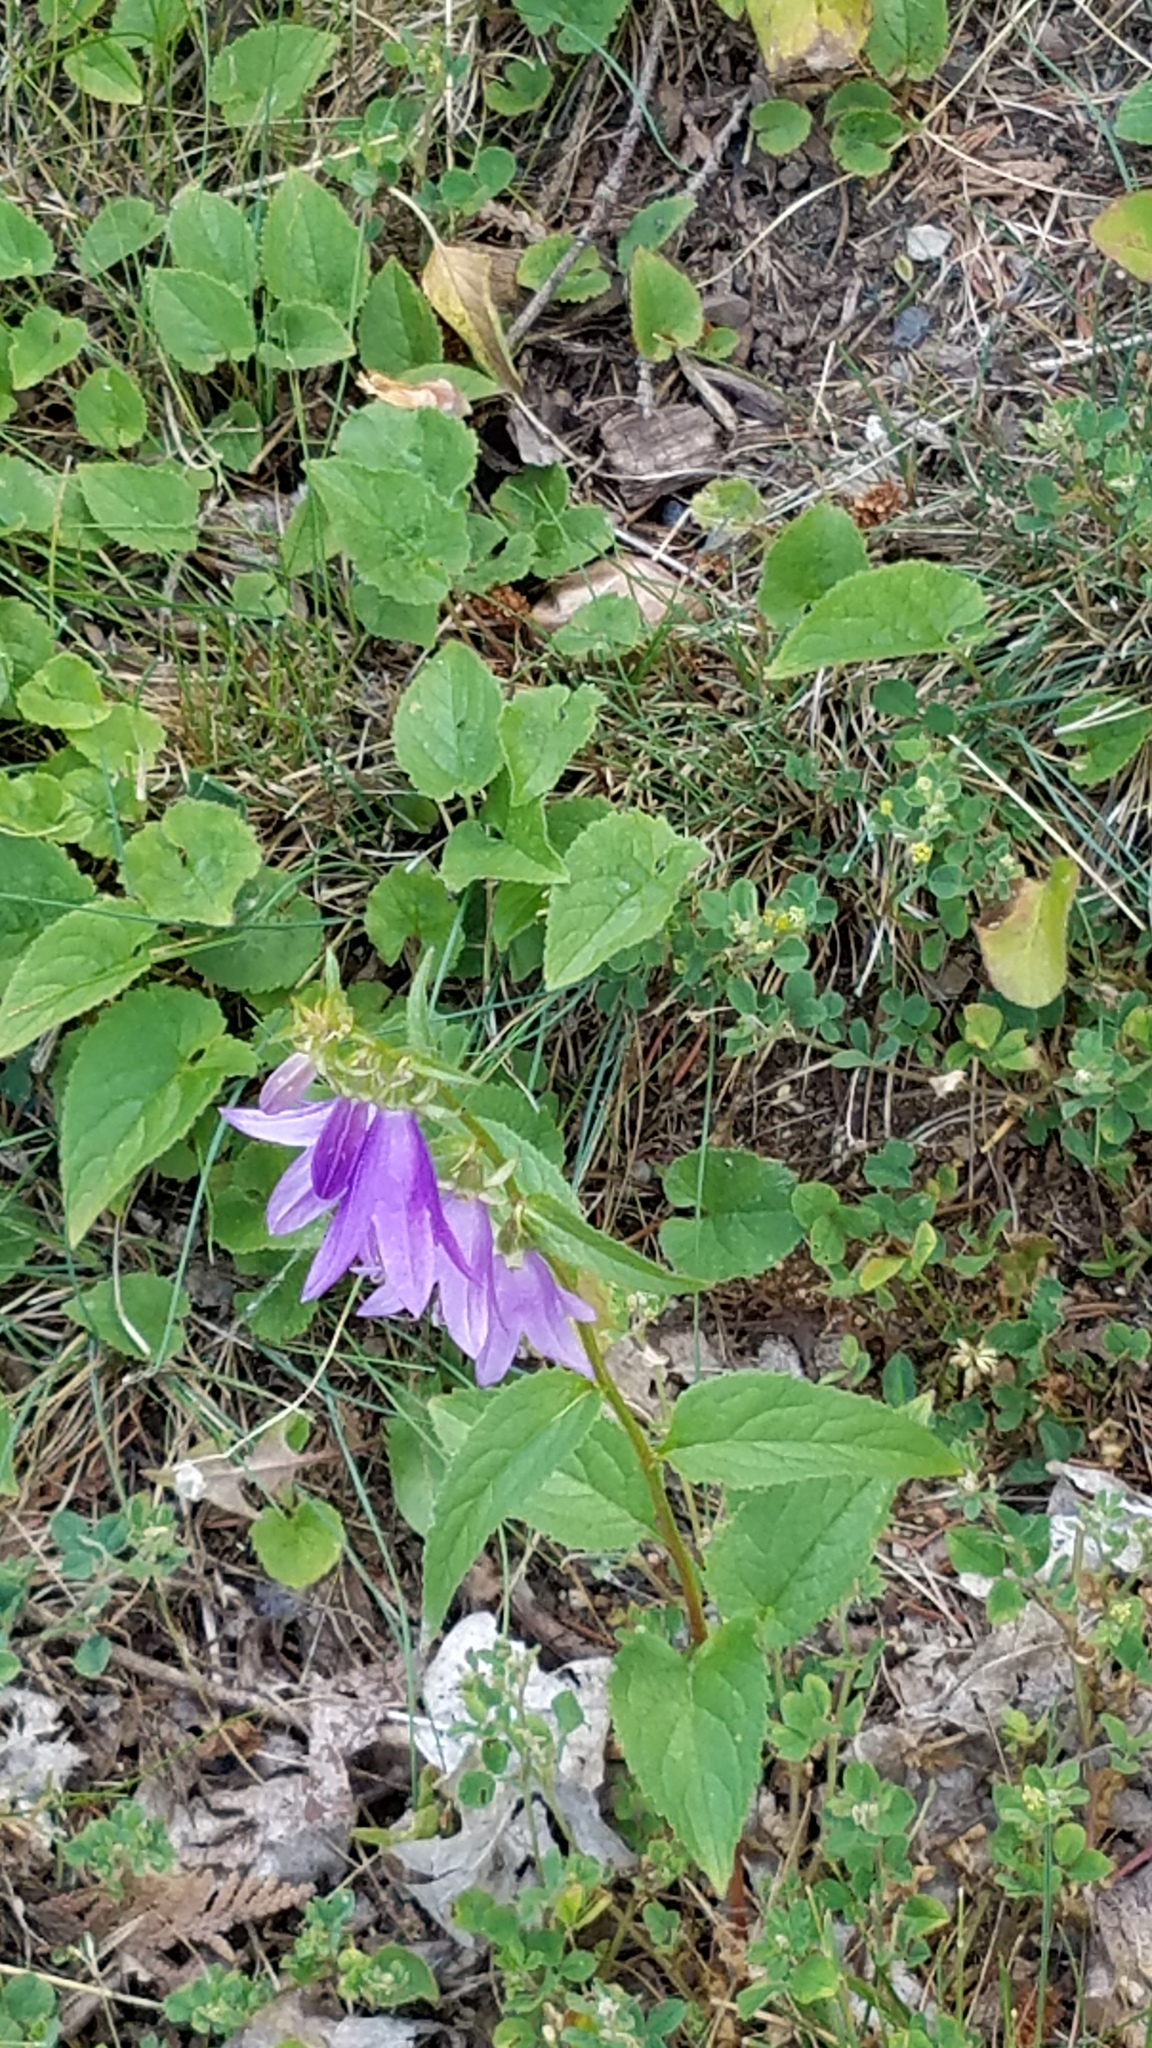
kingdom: Plantae
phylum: Tracheophyta
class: Magnoliopsida
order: Asterales
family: Campanulaceae
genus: Campanula
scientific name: Campanula rapunculoides
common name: Creeping bellflower
